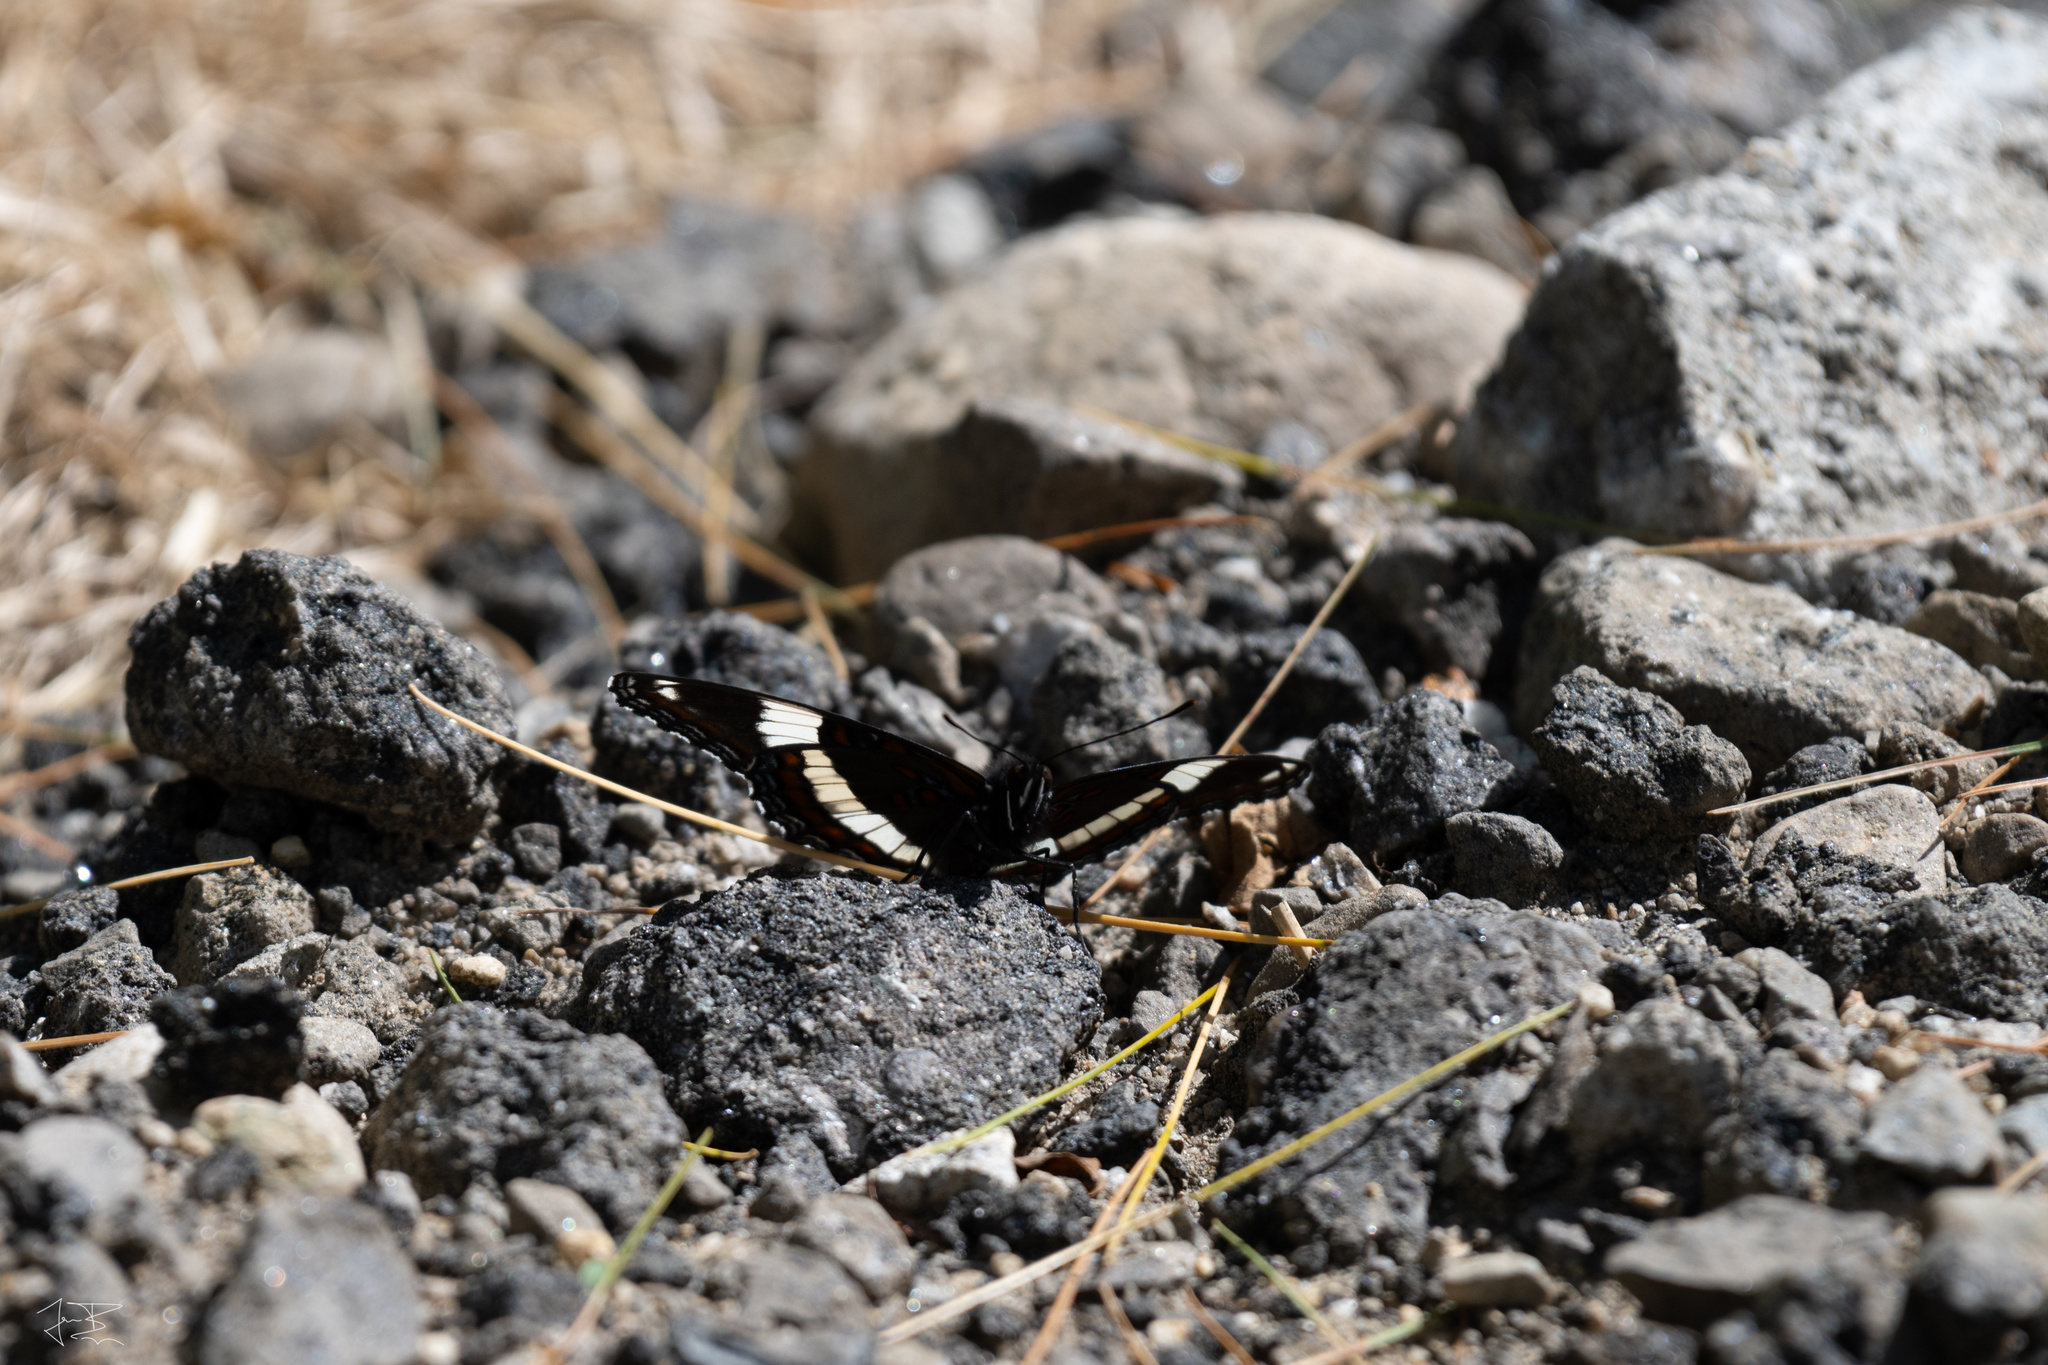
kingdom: Animalia
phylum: Arthropoda
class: Insecta
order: Lepidoptera
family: Nymphalidae
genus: Limenitis
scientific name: Limenitis arthemis
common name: Red-spotted admiral
